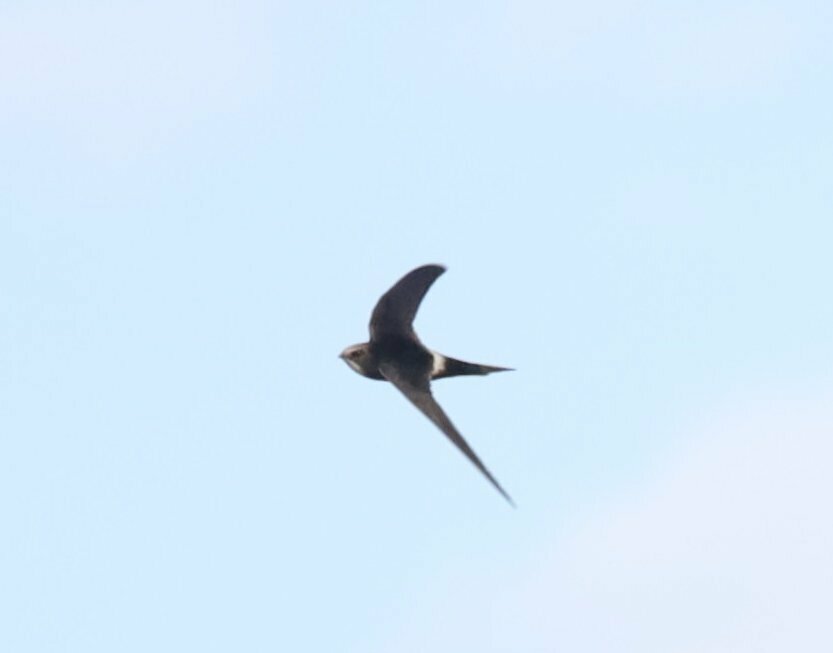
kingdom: Animalia
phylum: Chordata
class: Aves
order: Apodiformes
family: Apodidae
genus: Apus
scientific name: Apus caffer
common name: White-rumped swift
